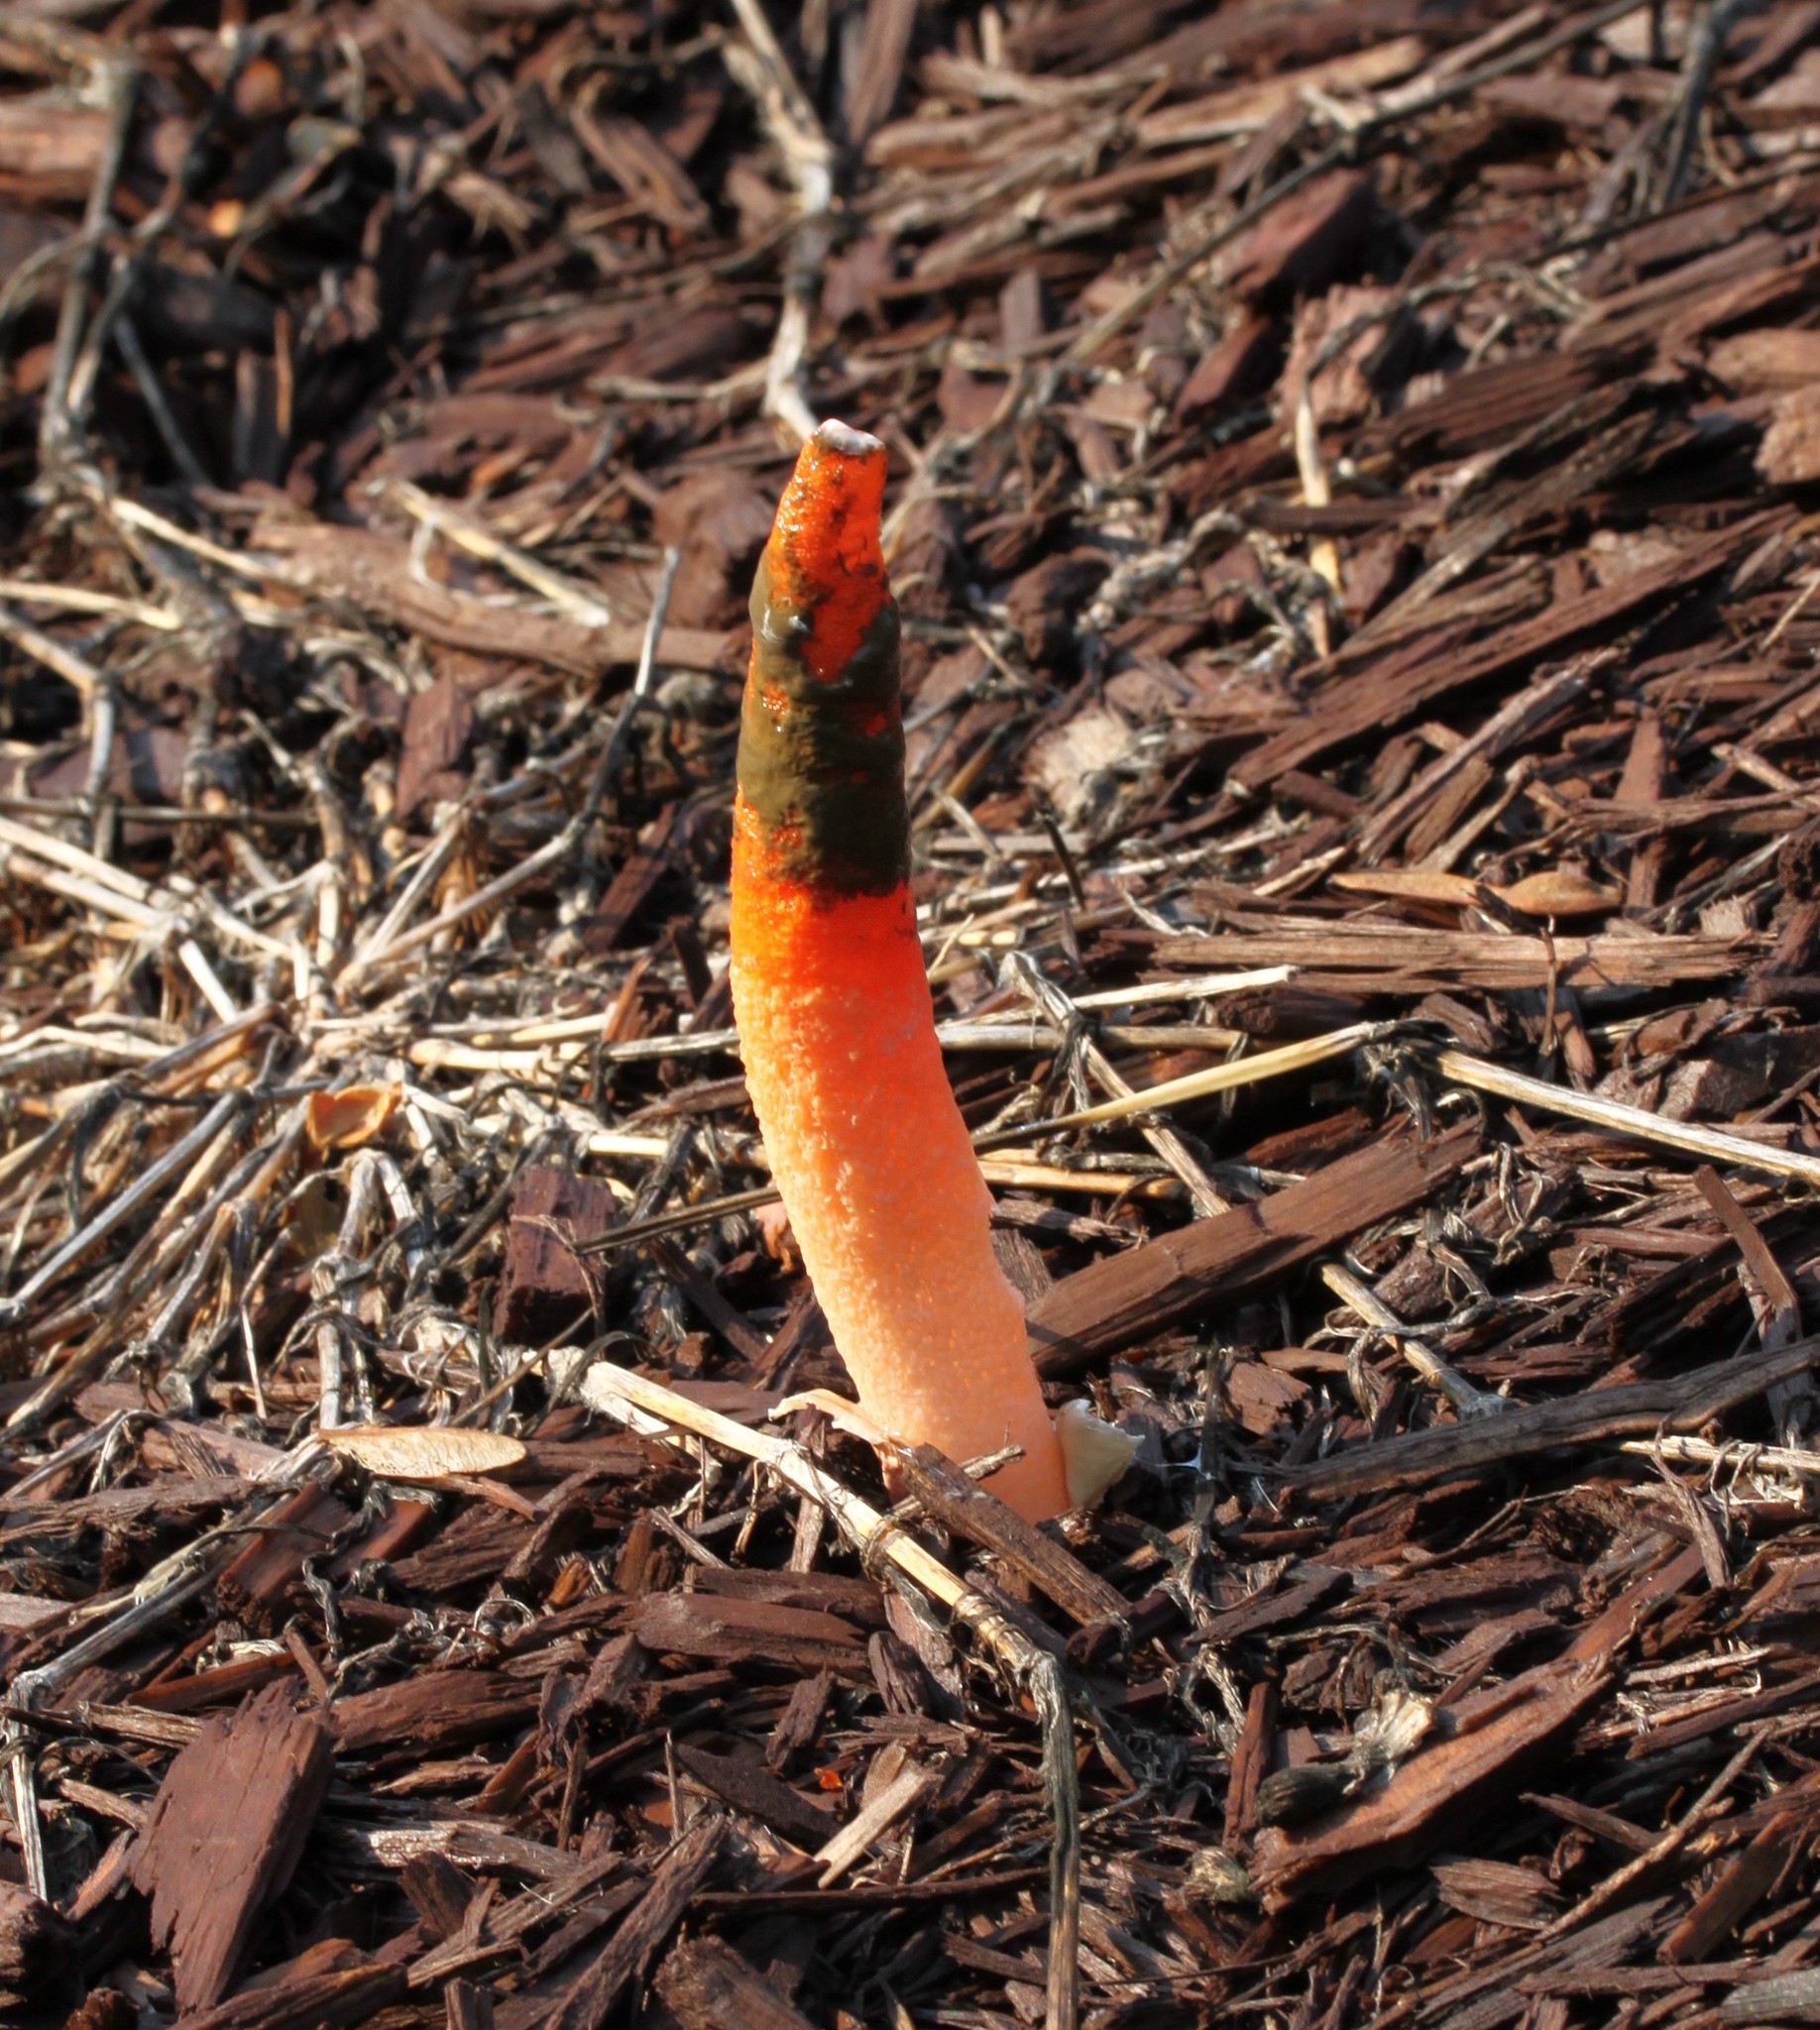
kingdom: Fungi
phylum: Basidiomycota
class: Agaricomycetes
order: Phallales
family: Phallaceae
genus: Mutinus
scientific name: Mutinus elegans
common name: Devil's dipstick
